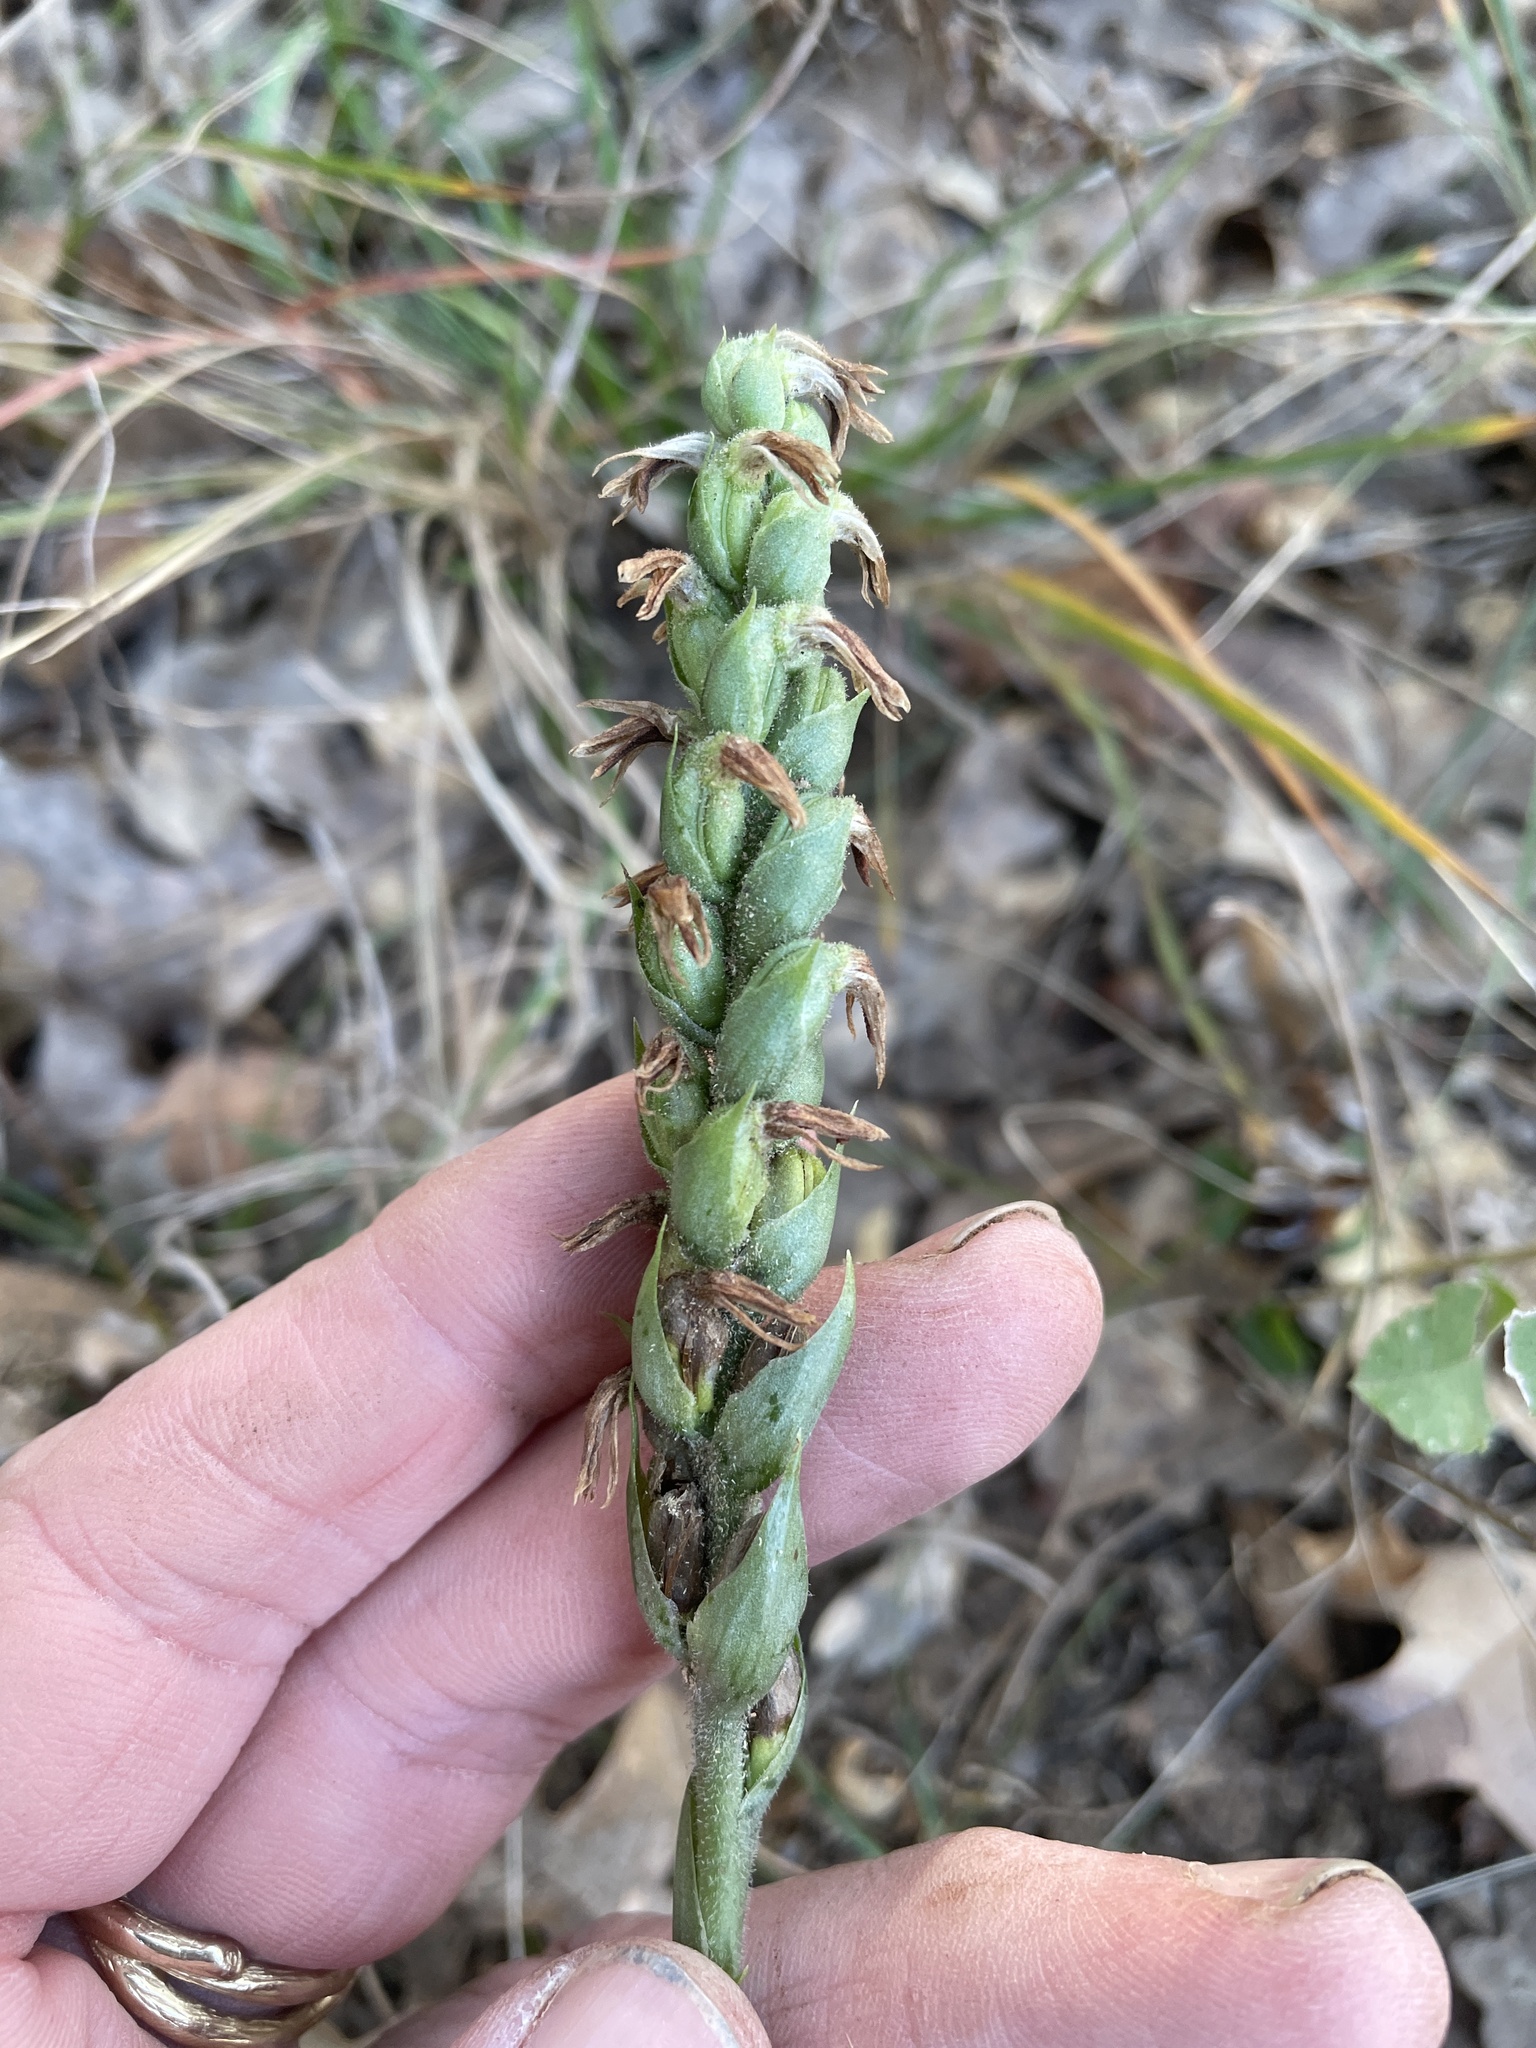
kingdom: Plantae
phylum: Tracheophyta
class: Liliopsida
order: Asparagales
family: Orchidaceae
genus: Spiranthes
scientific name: Spiranthes cernua
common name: Dropping ladies'-tresses
